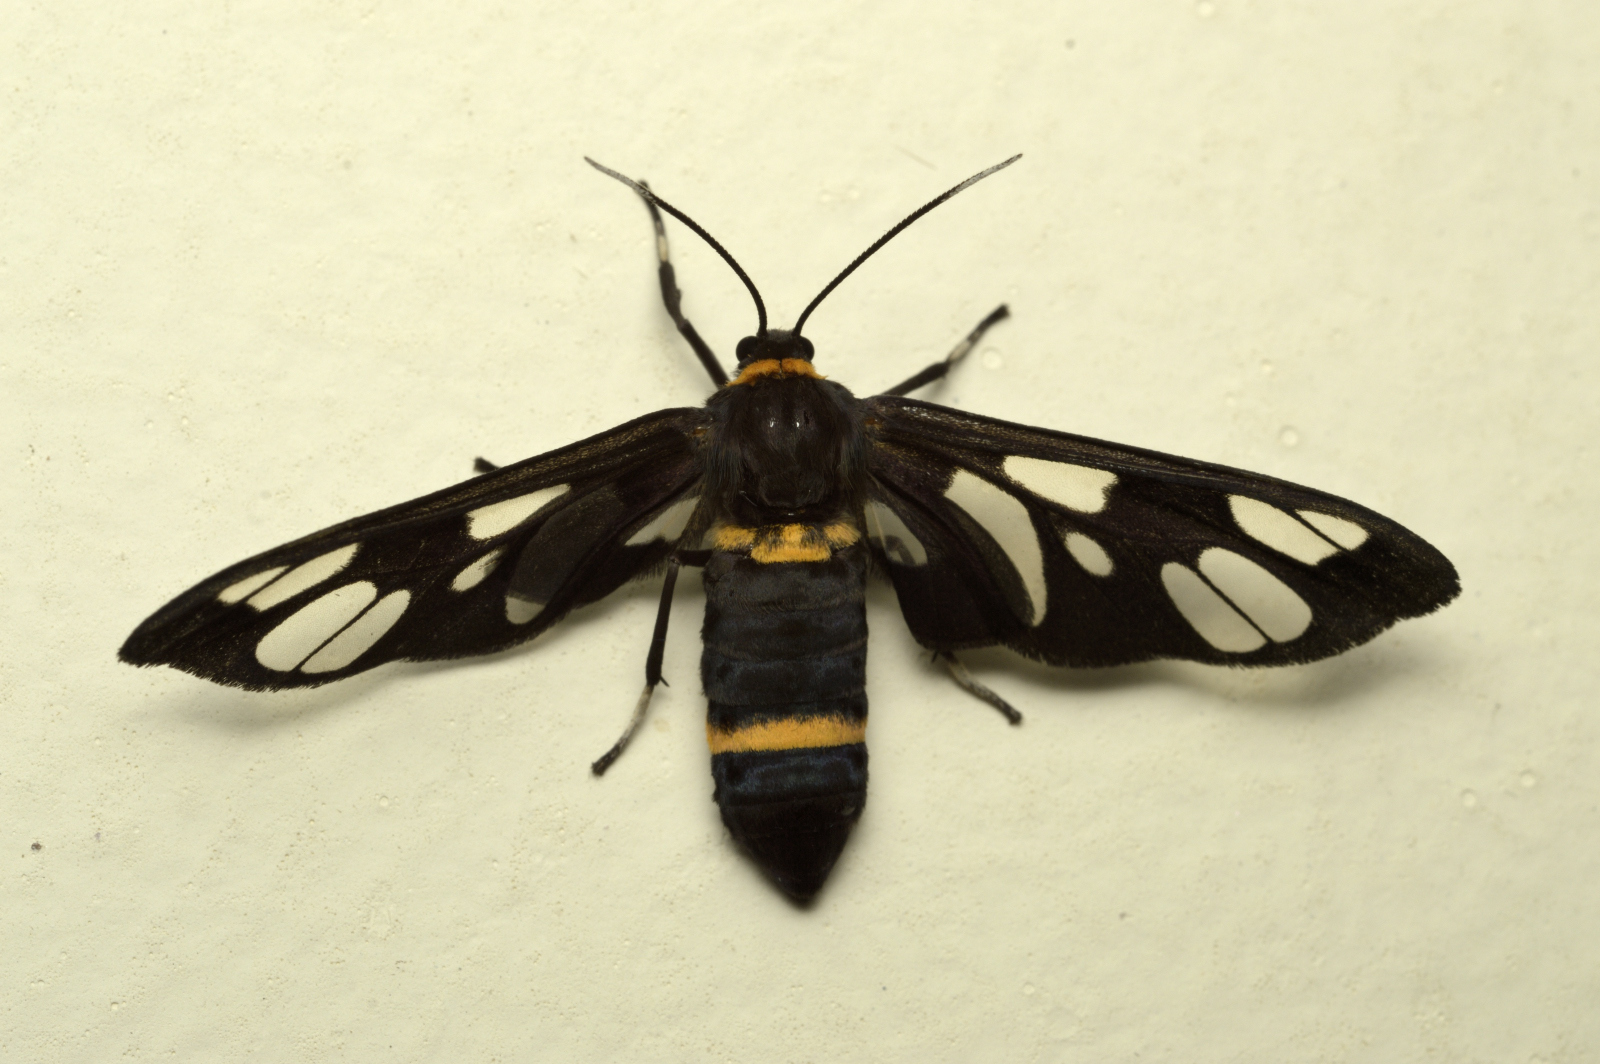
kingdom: Animalia
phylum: Arthropoda
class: Insecta
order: Lepidoptera
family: Erebidae
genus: Syntomoides
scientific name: Syntomoides imaon
